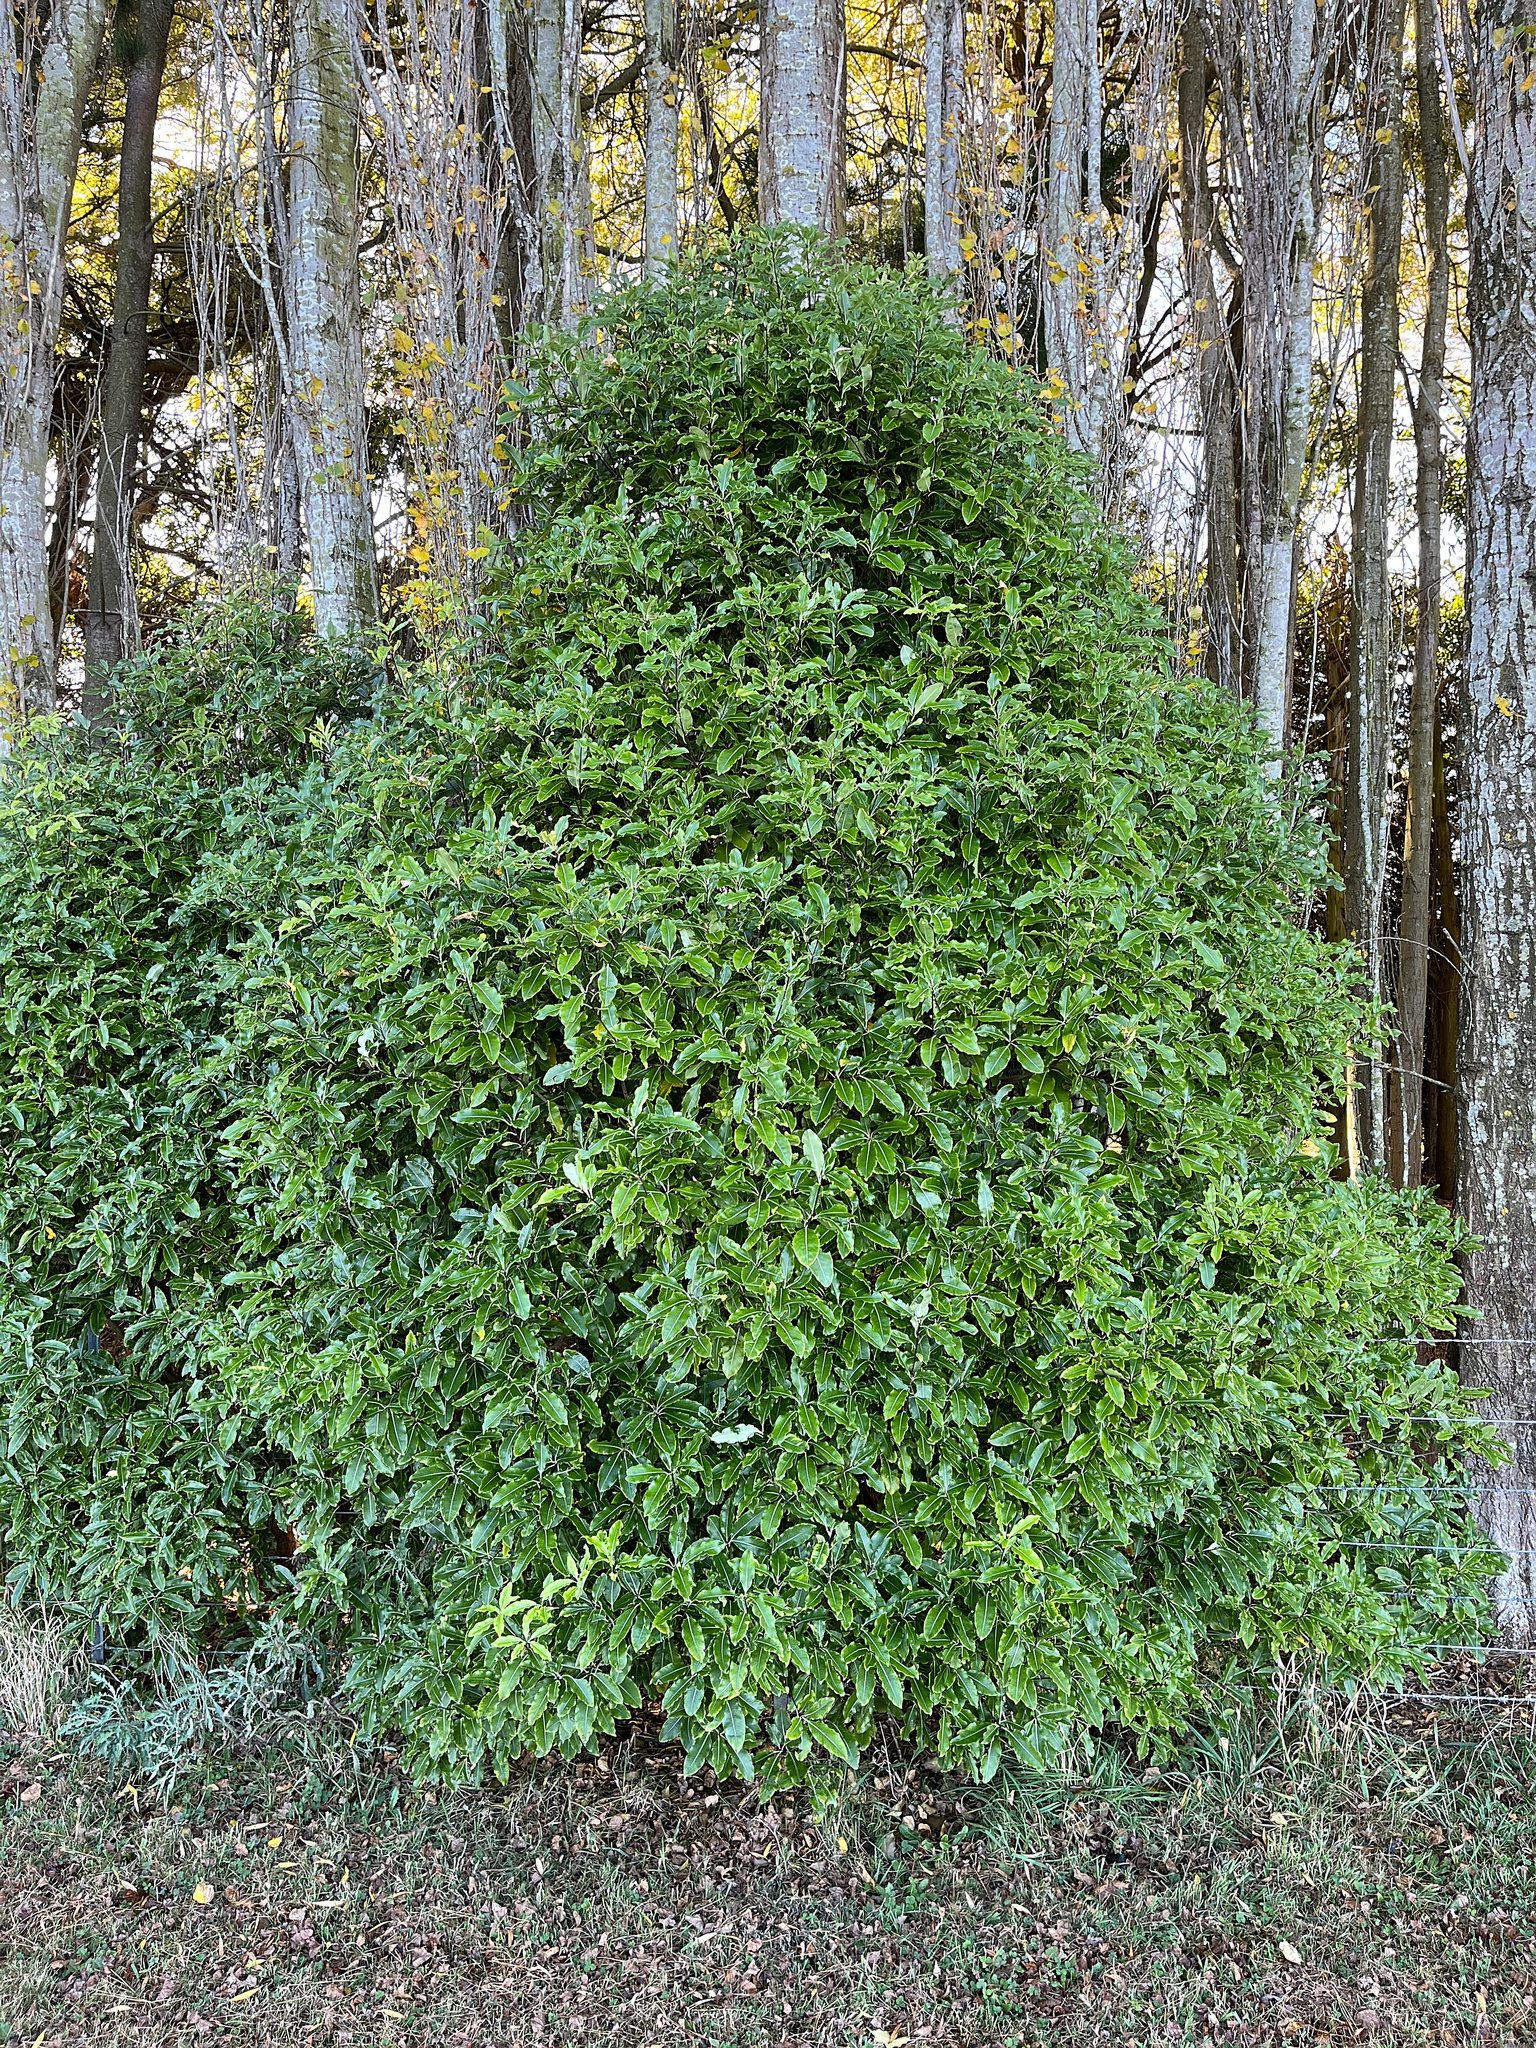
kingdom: Plantae
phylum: Tracheophyta
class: Magnoliopsida
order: Apiales
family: Pittosporaceae
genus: Pittosporum
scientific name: Pittosporum eugenioides
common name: Lemonwood
